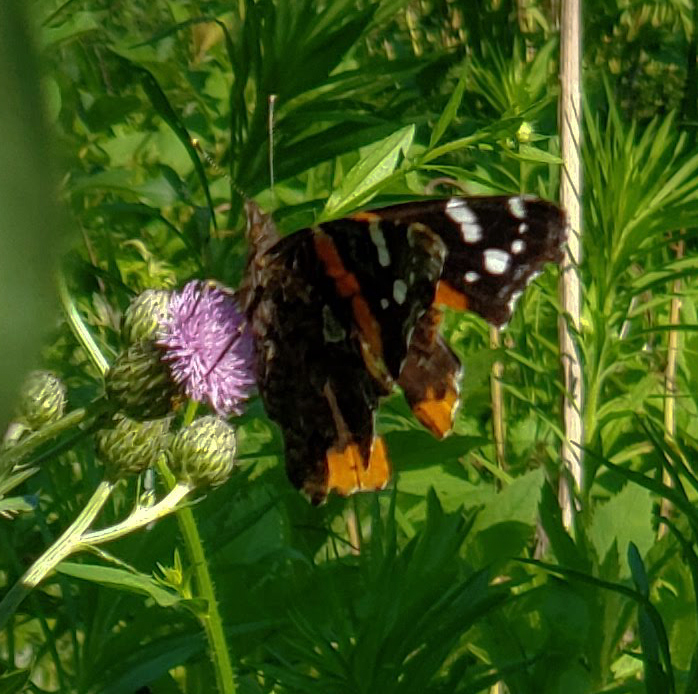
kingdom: Animalia
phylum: Arthropoda
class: Insecta
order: Lepidoptera
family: Nymphalidae
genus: Vanessa
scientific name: Vanessa atalanta
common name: Red admiral
